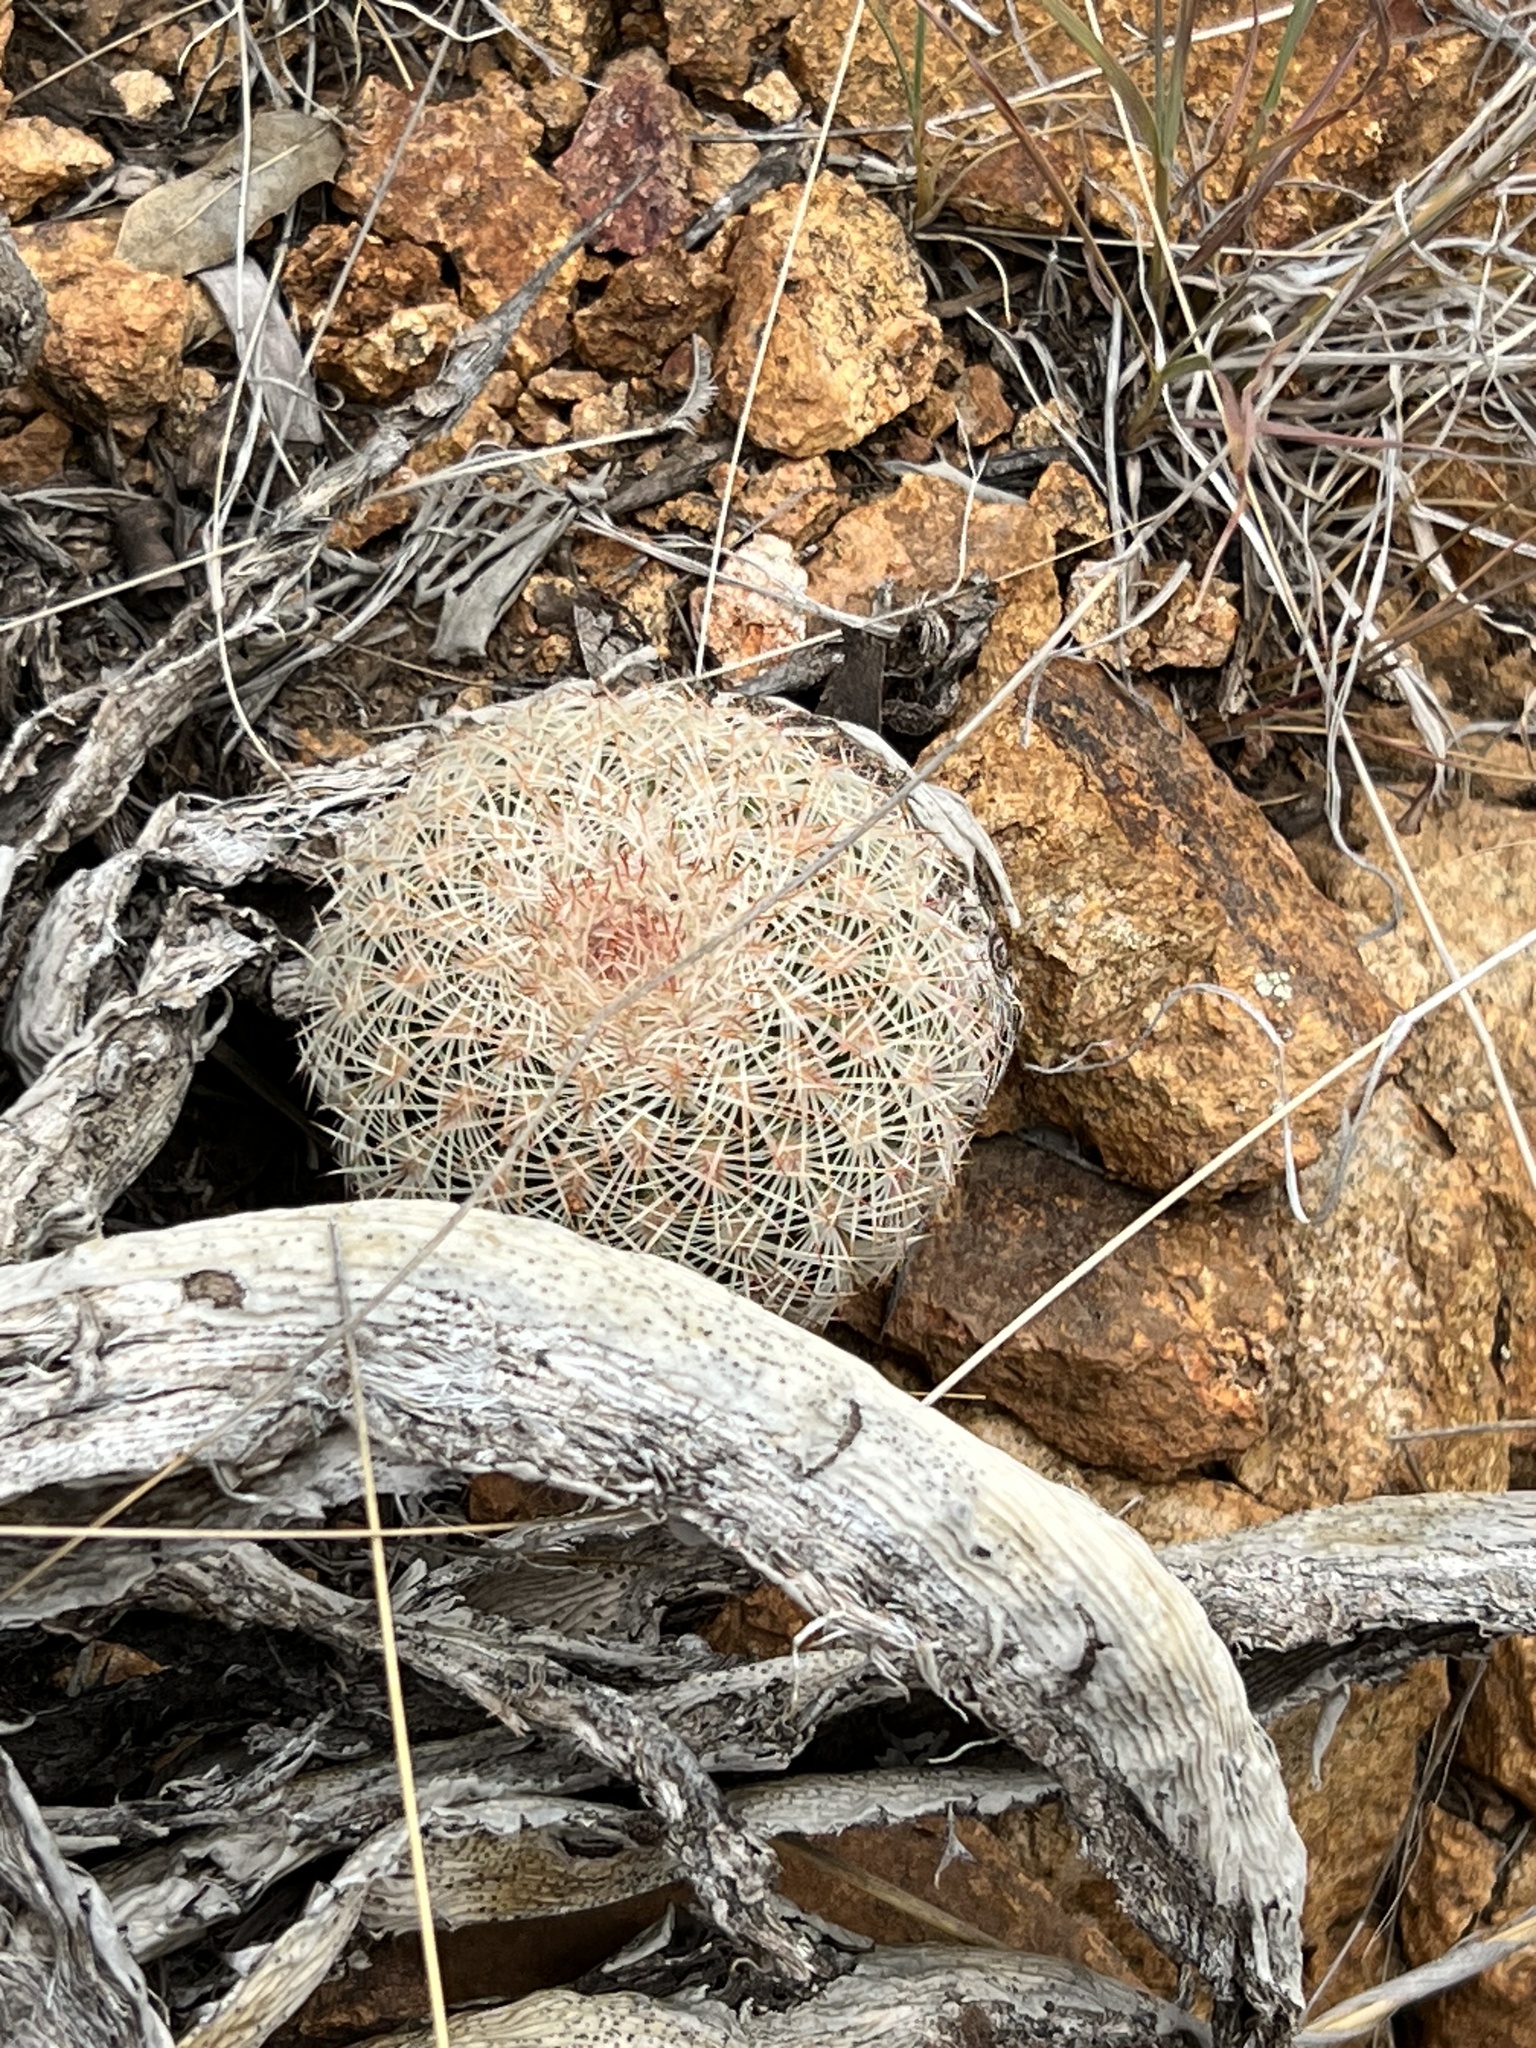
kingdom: Plantae
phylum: Tracheophyta
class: Magnoliopsida
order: Caryophyllales
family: Cactaceae
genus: Echinocereus
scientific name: Echinocereus rigidissimus
